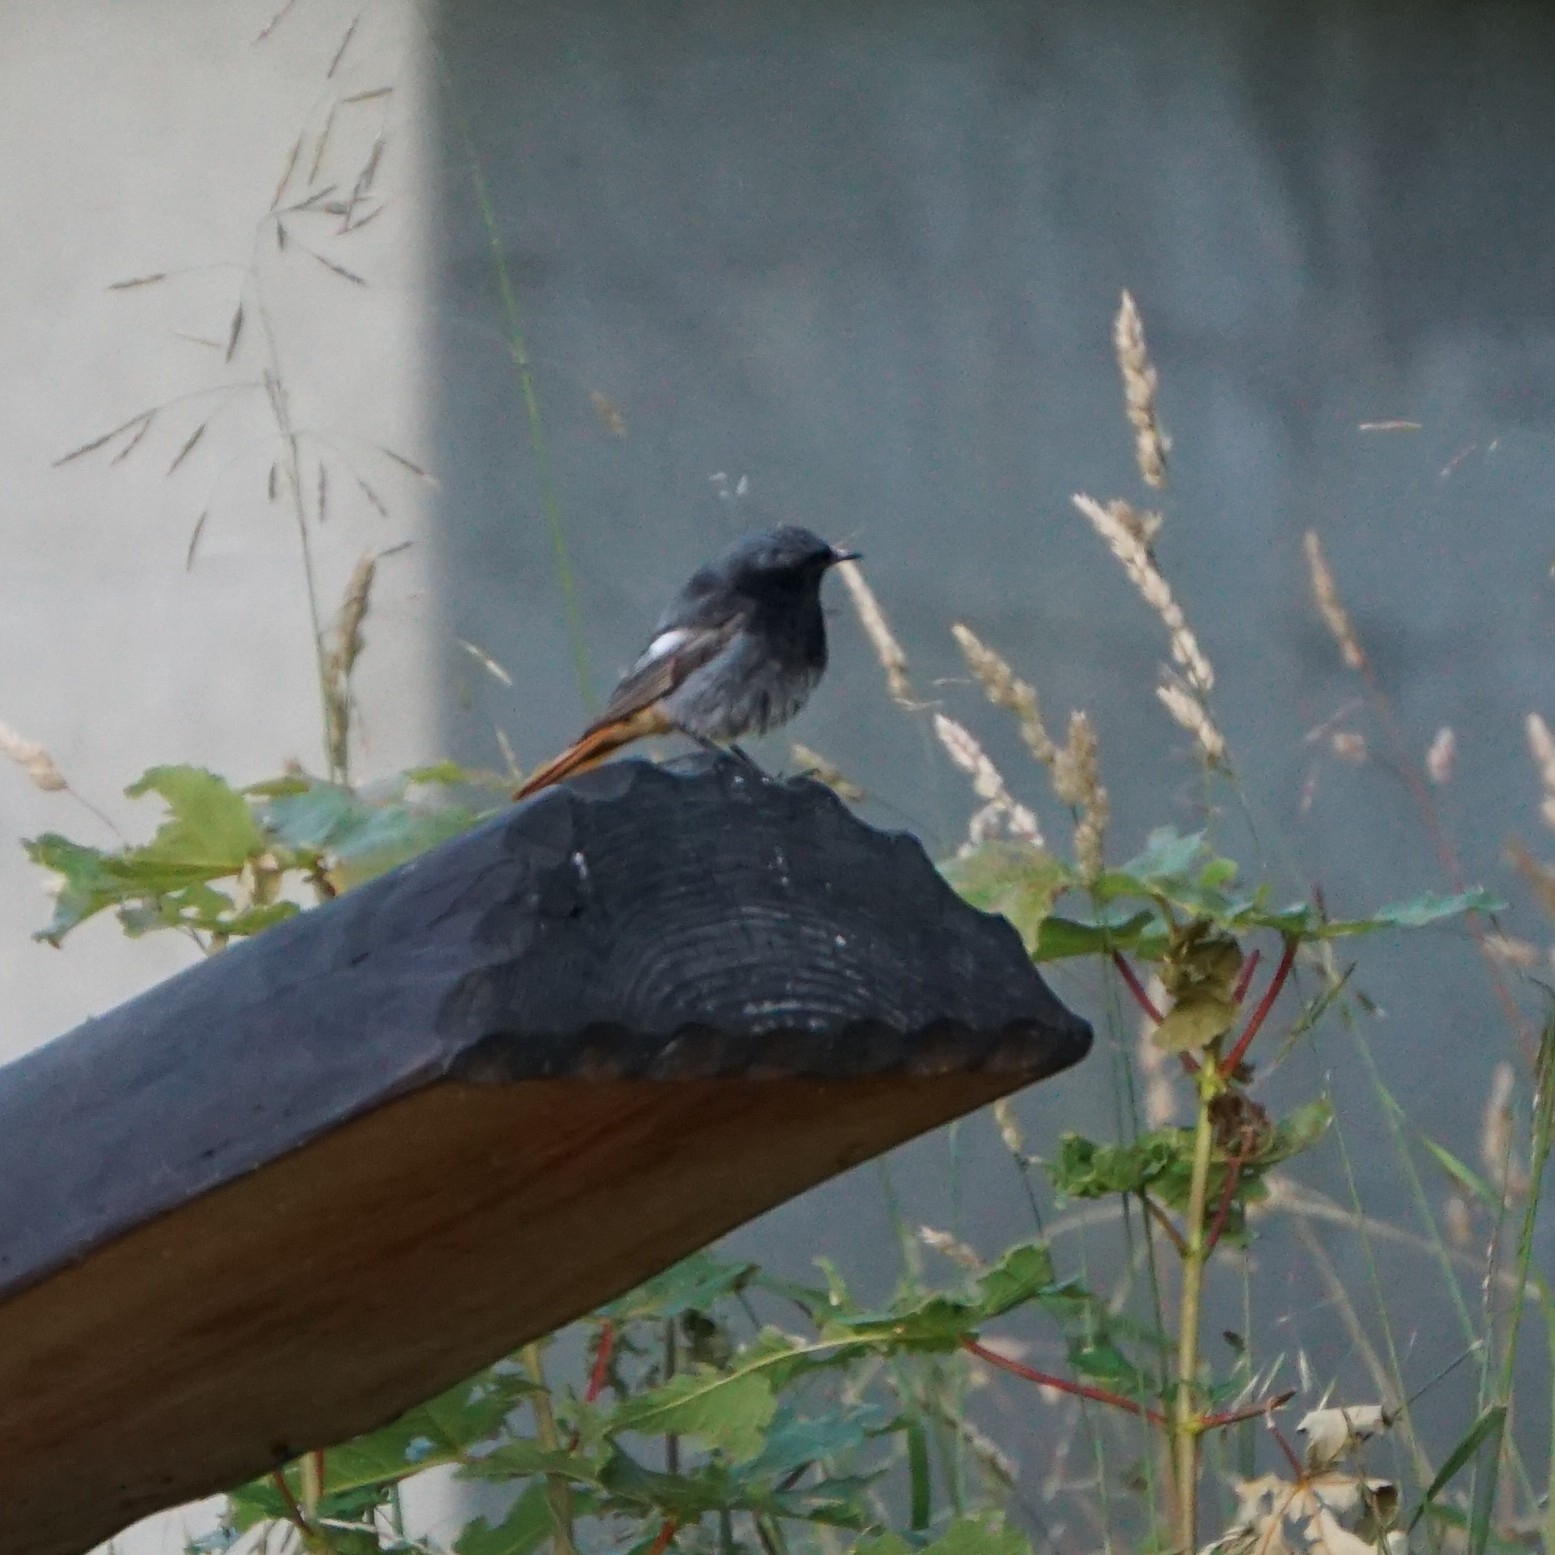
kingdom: Animalia
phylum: Chordata
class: Aves
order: Passeriformes
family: Muscicapidae
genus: Phoenicurus
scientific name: Phoenicurus ochruros
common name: Black redstart
